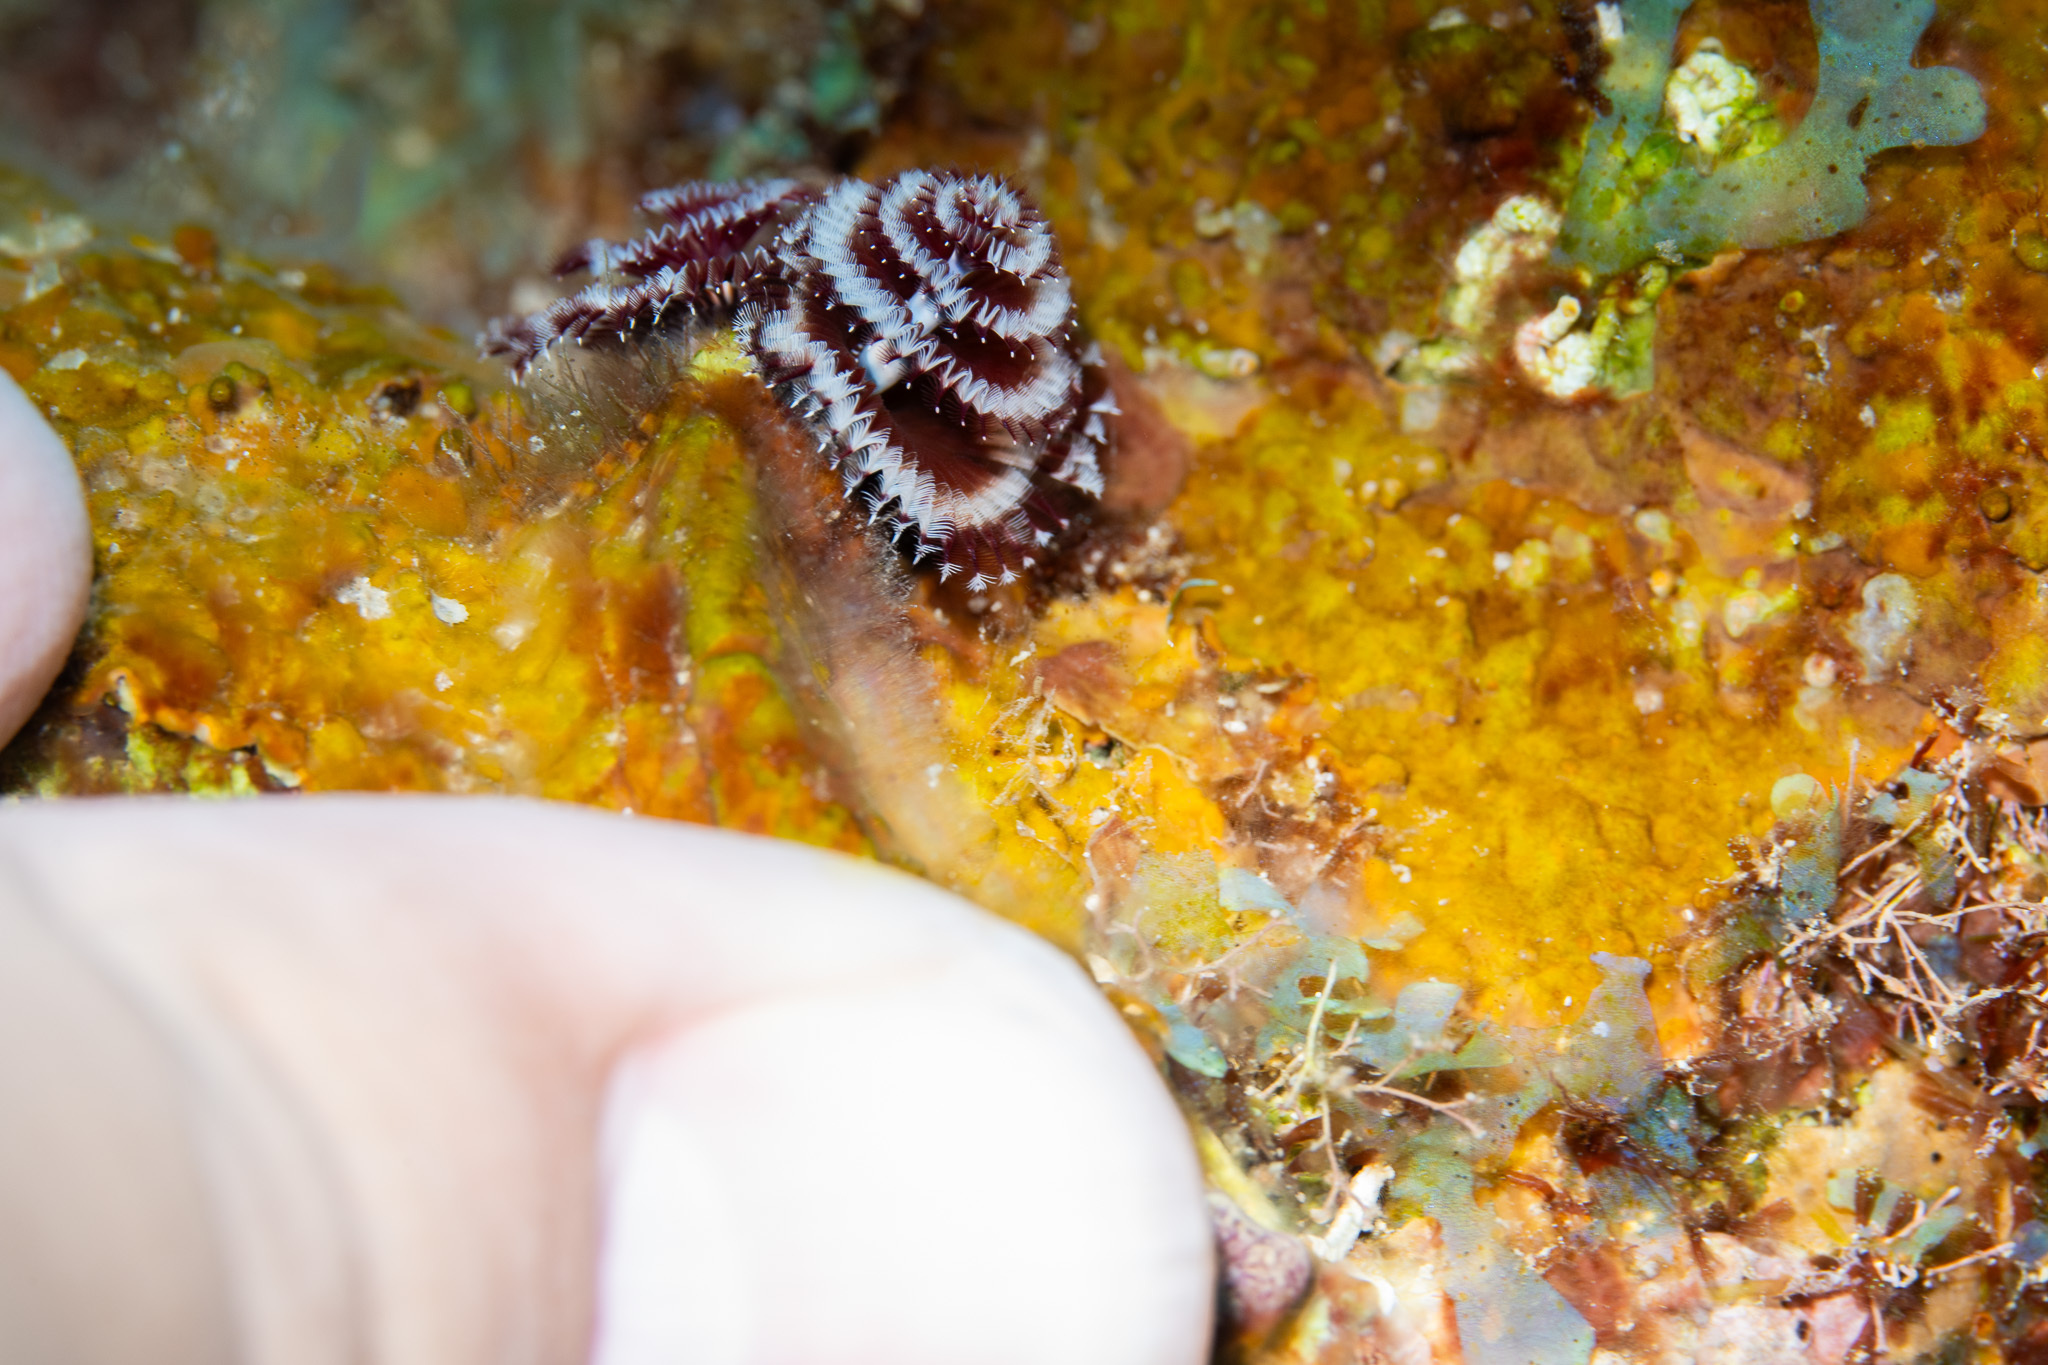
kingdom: Animalia
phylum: Annelida
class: Polychaeta
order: Sabellida
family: Serpulidae
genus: Spirobranchus
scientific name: Spirobranchus giganteus
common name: Christmas tree worm
